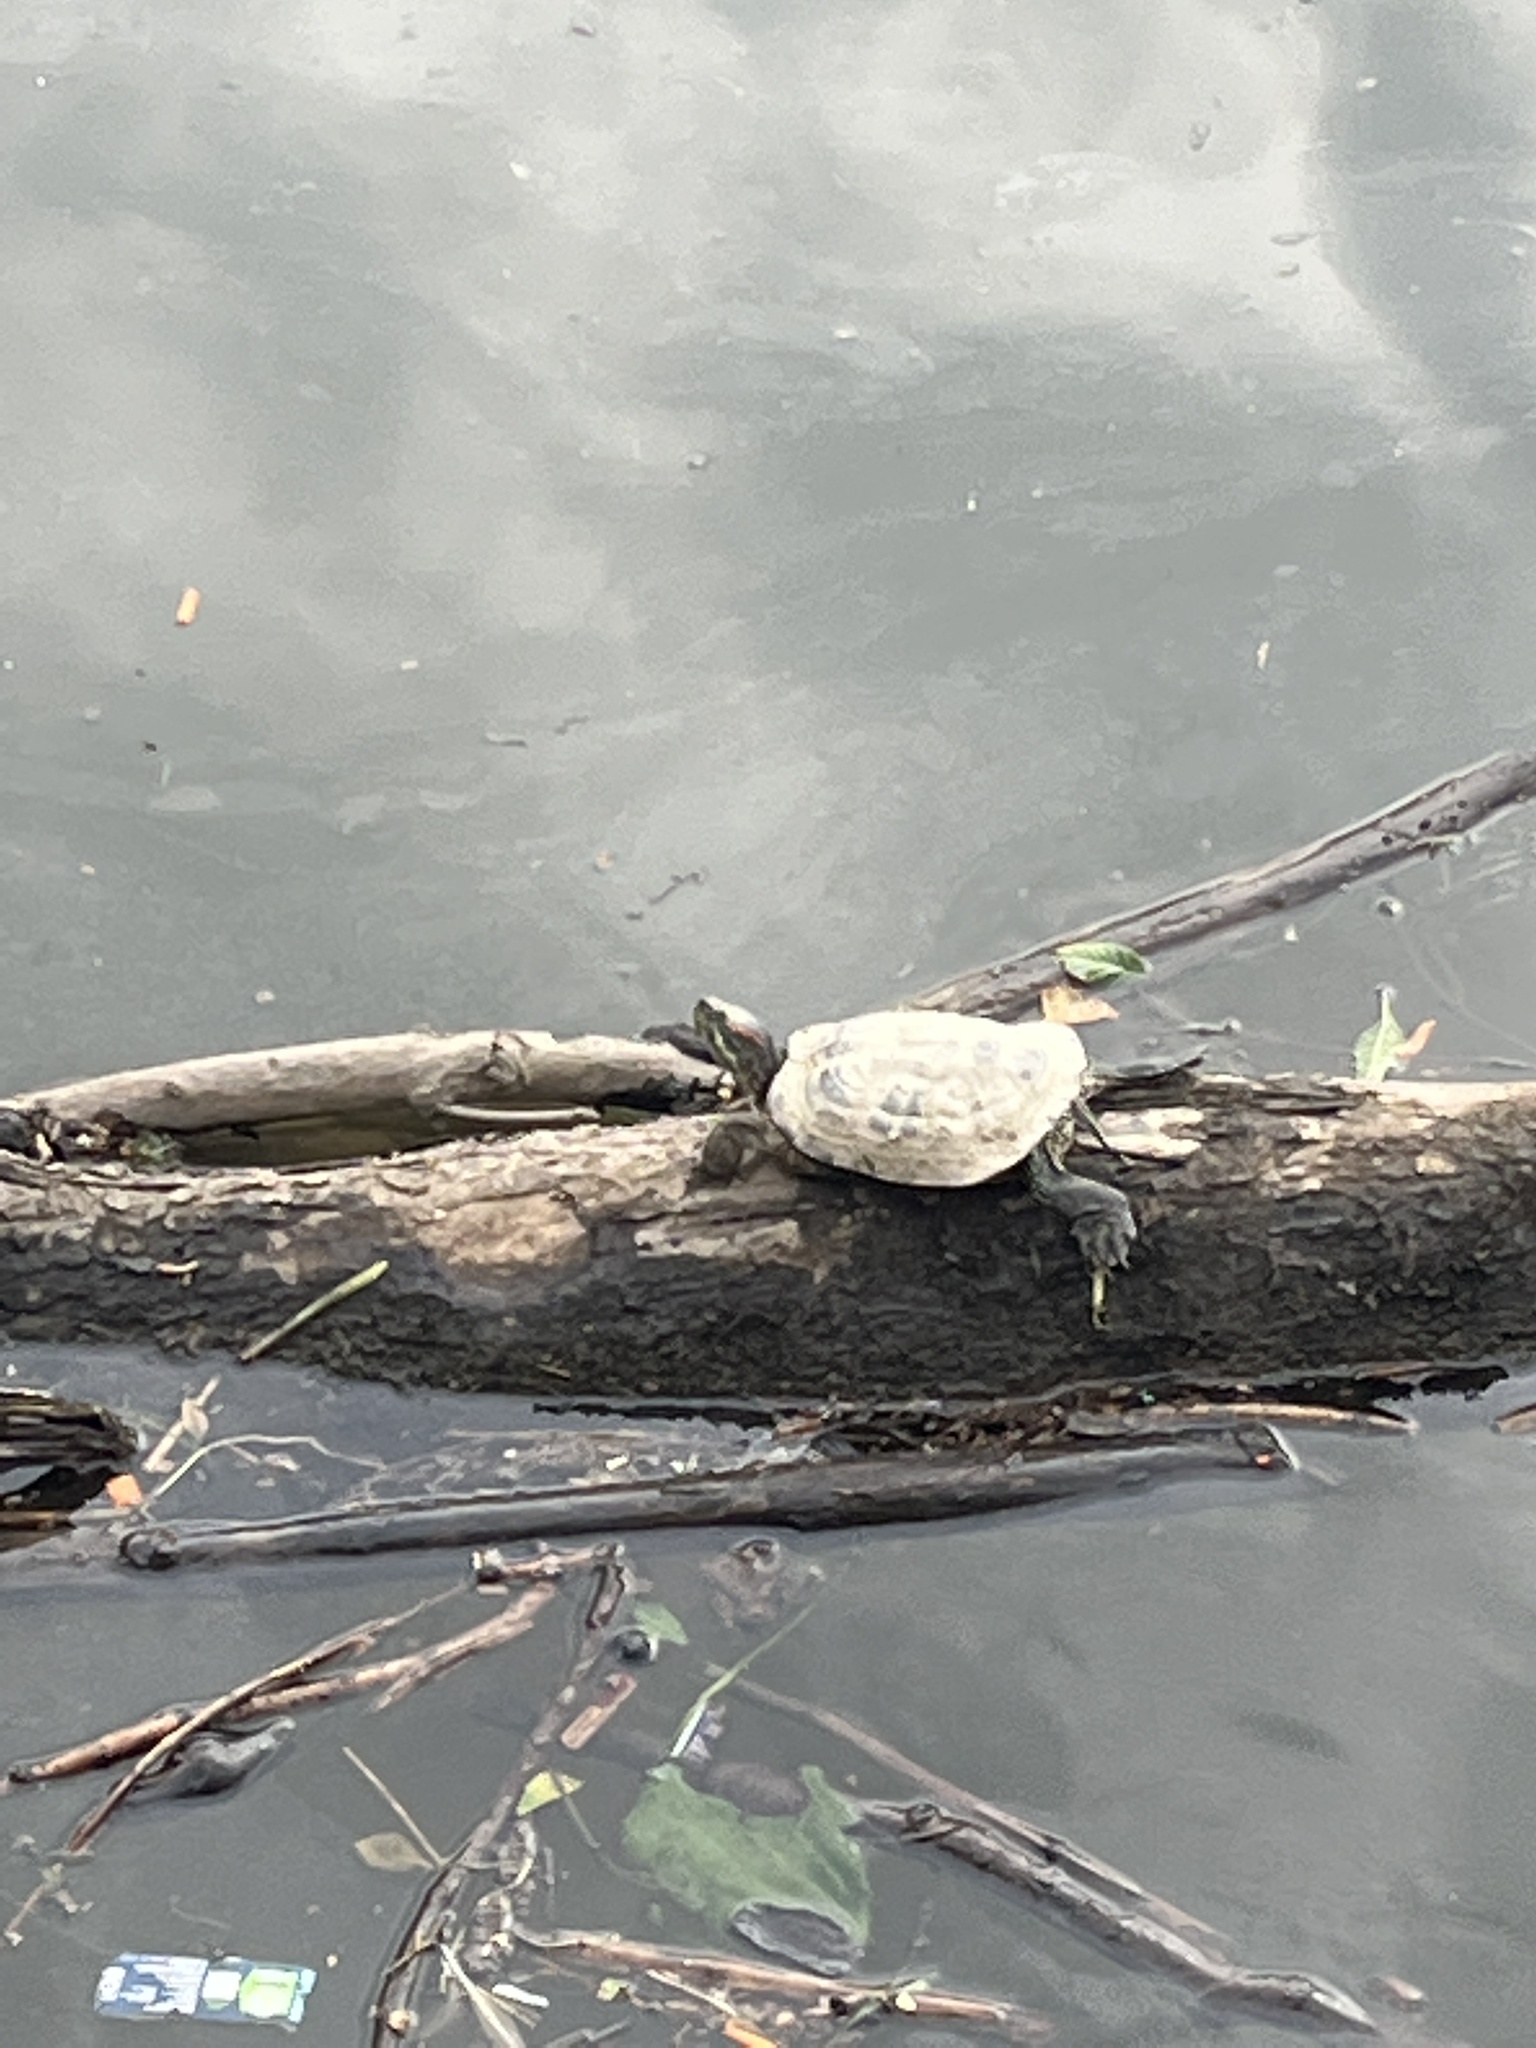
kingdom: Animalia
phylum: Chordata
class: Testudines
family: Emydidae
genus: Trachemys
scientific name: Trachemys scripta
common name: Slider
